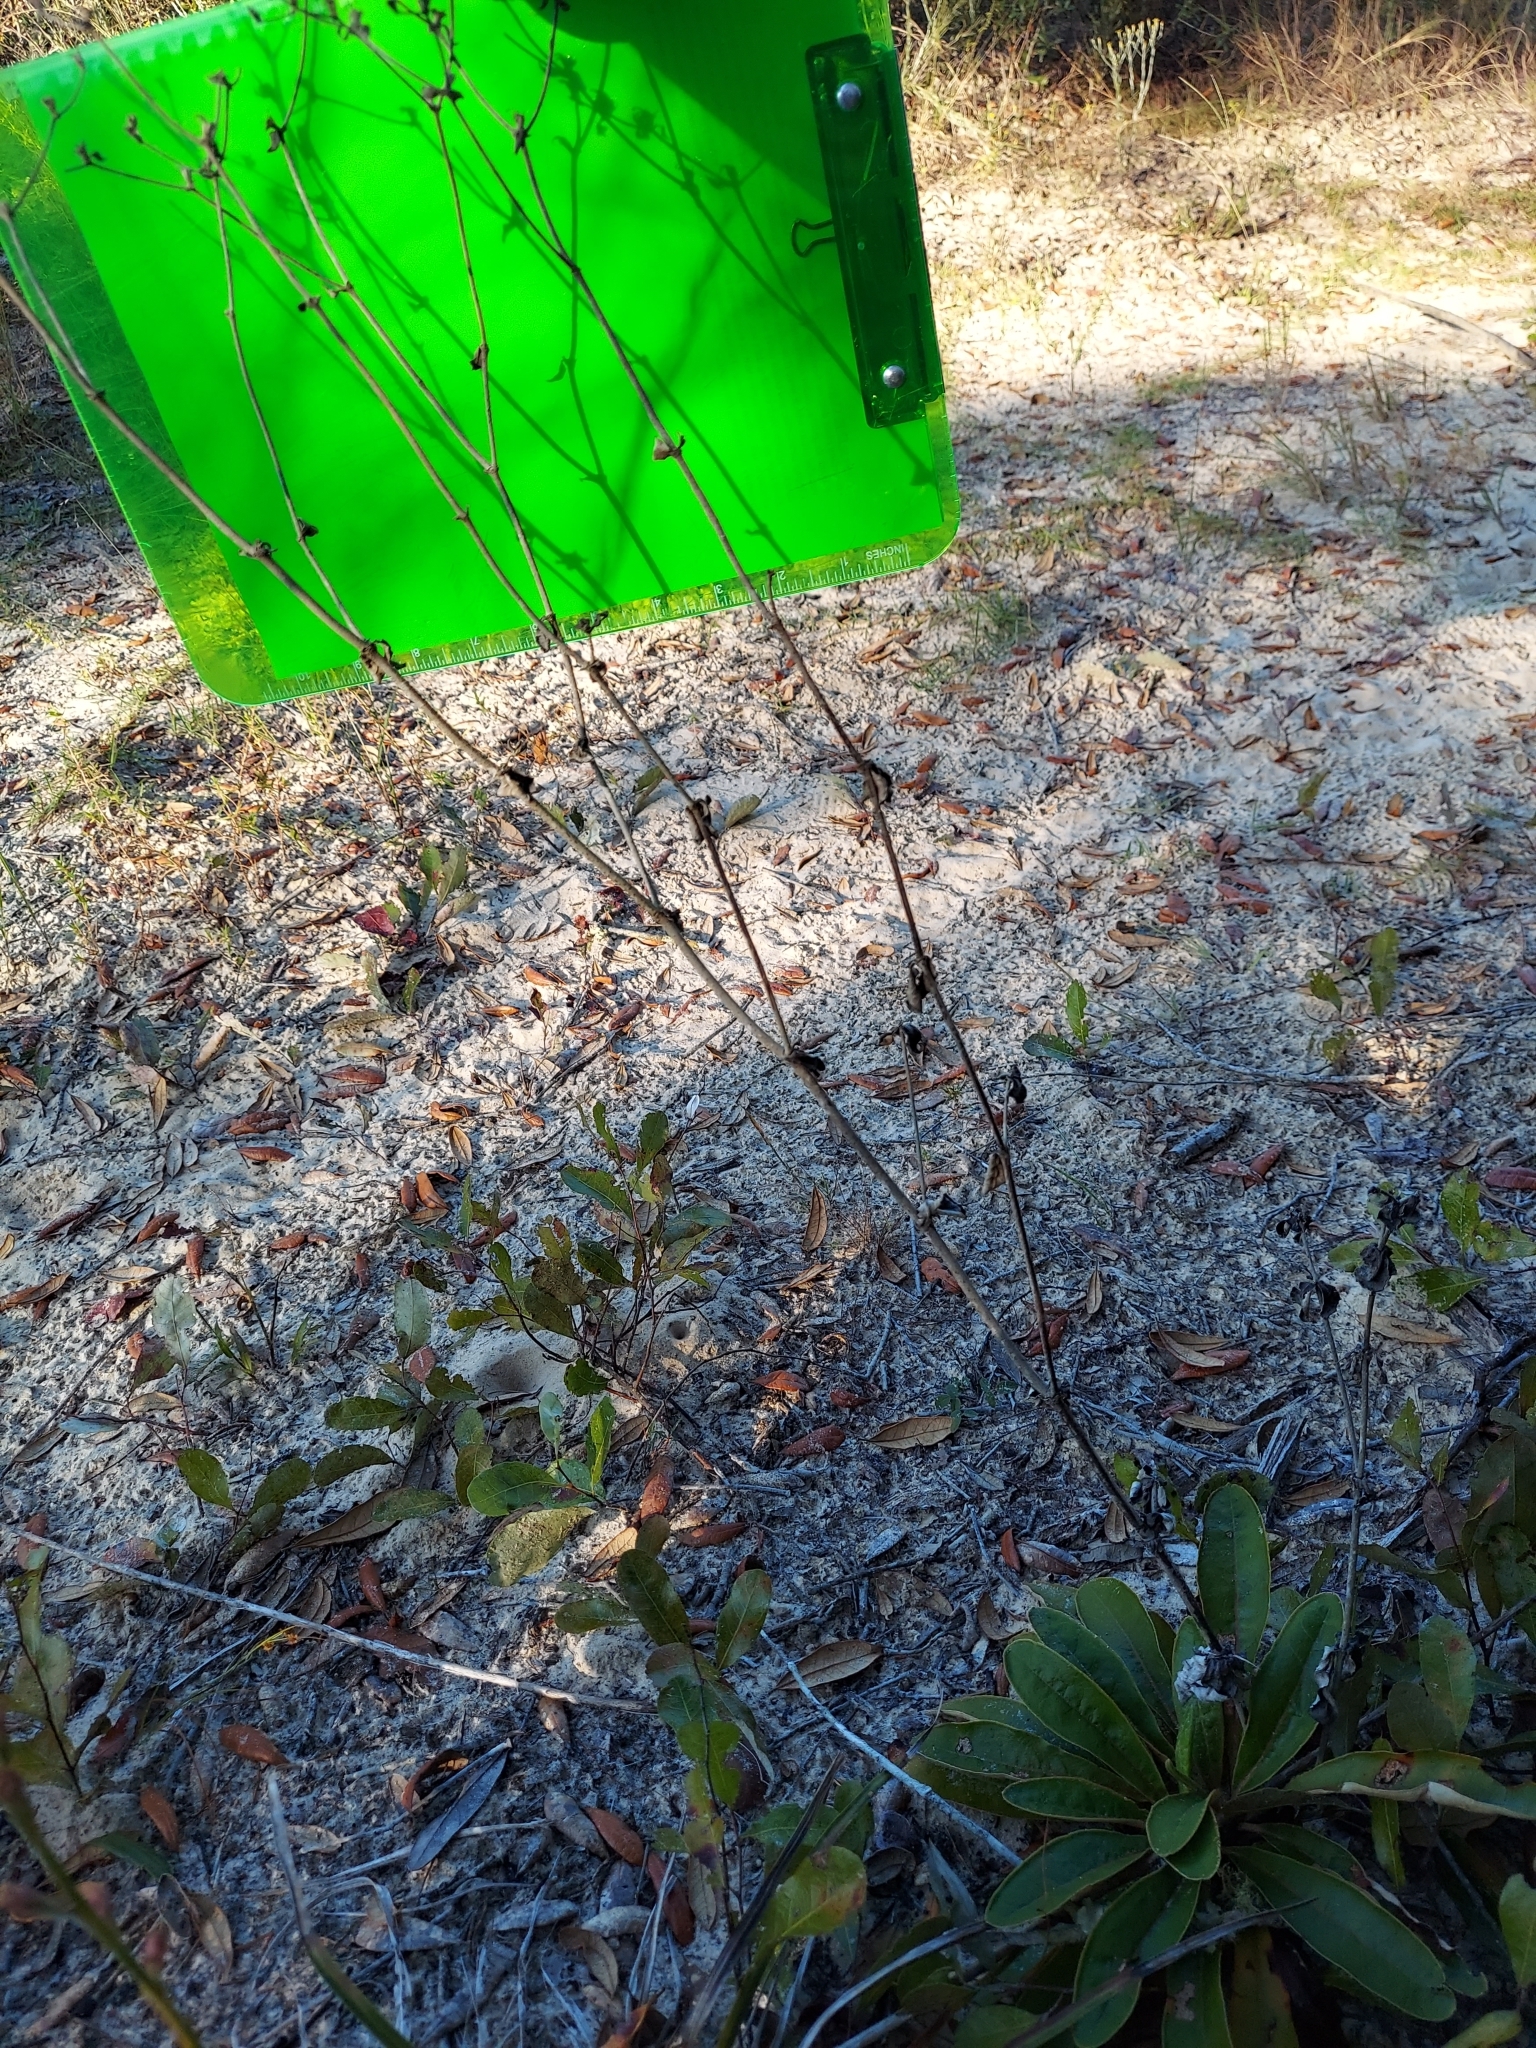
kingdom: Plantae
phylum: Tracheophyta
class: Magnoliopsida
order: Caryophyllales
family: Polygonaceae
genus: Eriogonum
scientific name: Eriogonum tomentosum
